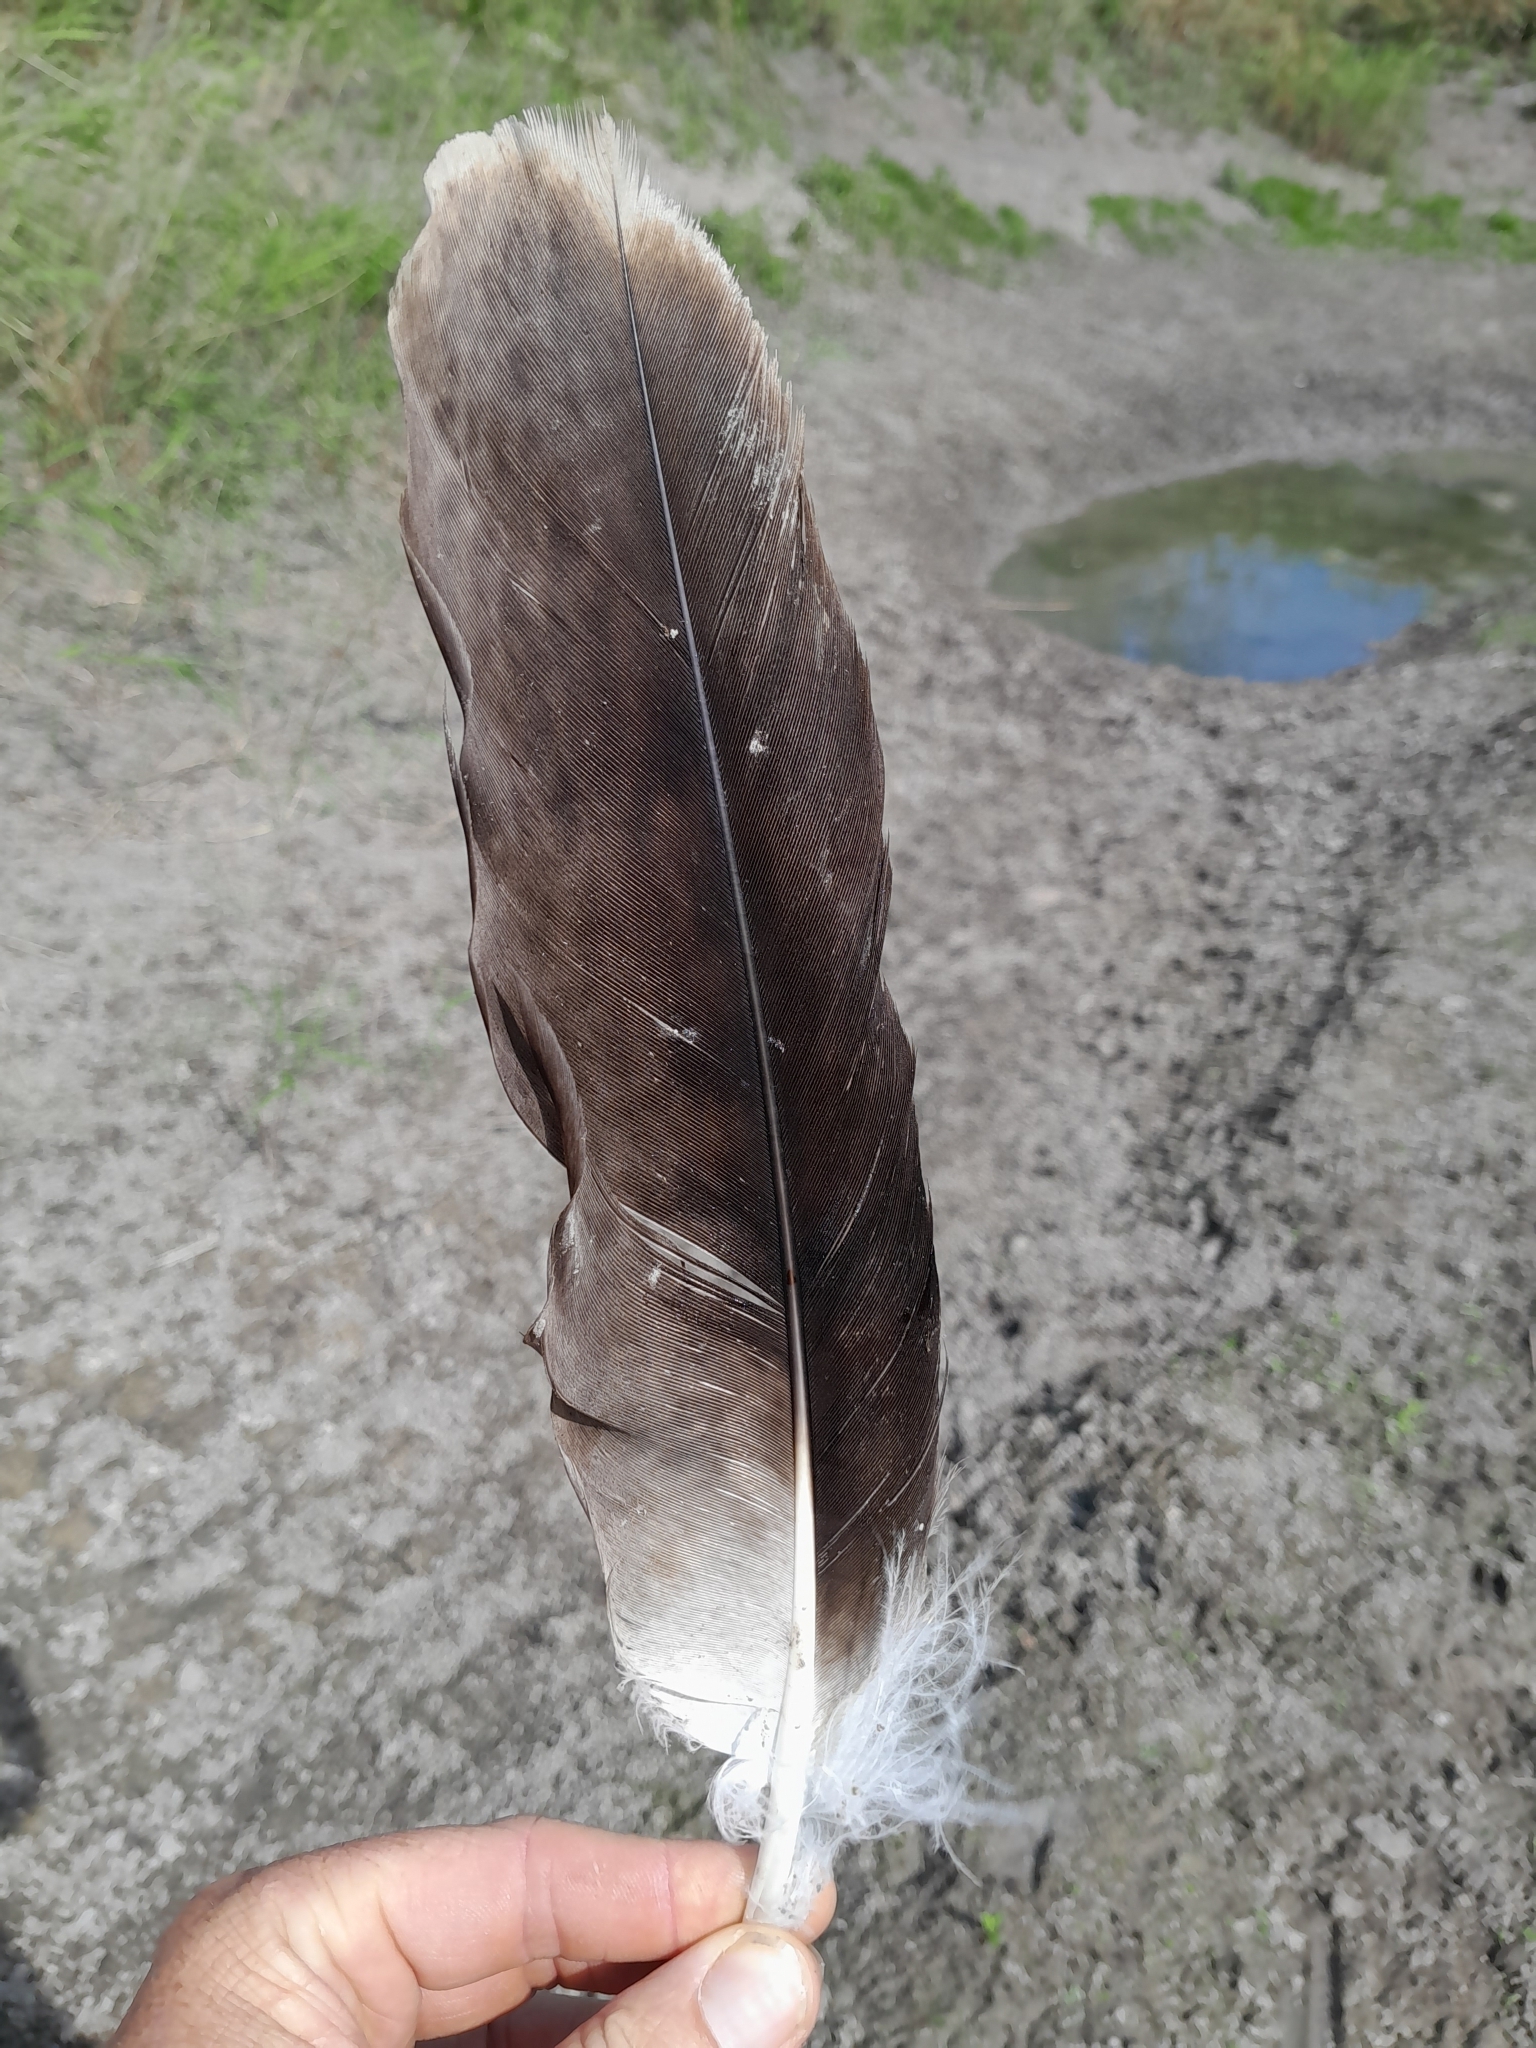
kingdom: Animalia
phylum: Chordata
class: Aves
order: Accipitriformes
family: Accipitridae
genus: Aquila
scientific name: Aquila heliaca
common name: Eastern imperial eagle
